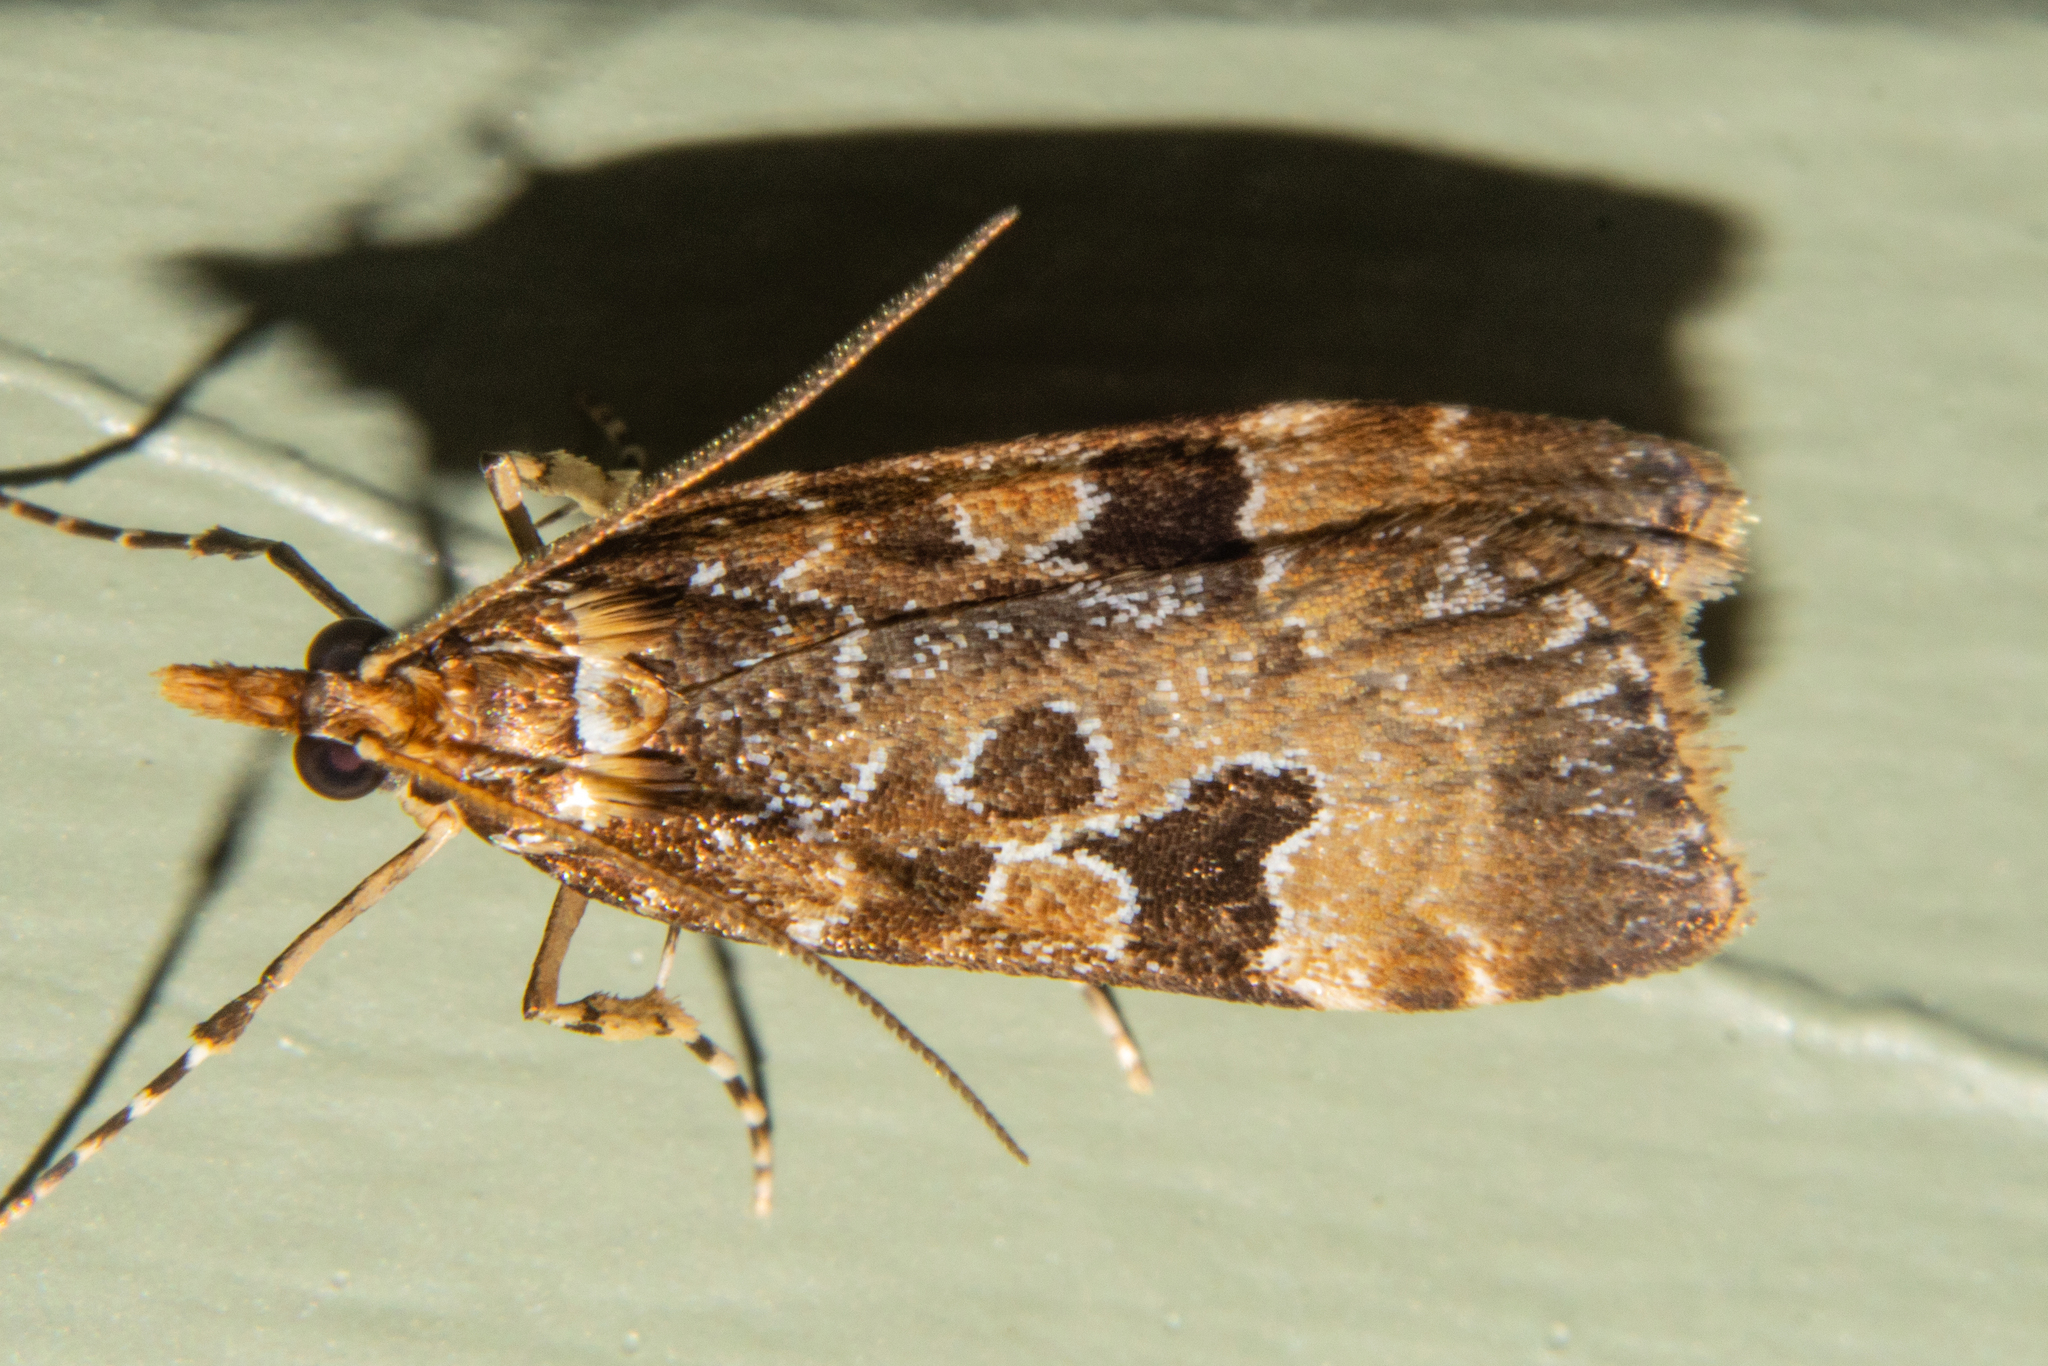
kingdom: Animalia
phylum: Arthropoda
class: Insecta
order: Lepidoptera
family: Crambidae
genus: Scoparia
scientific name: Scoparia ustimacula
